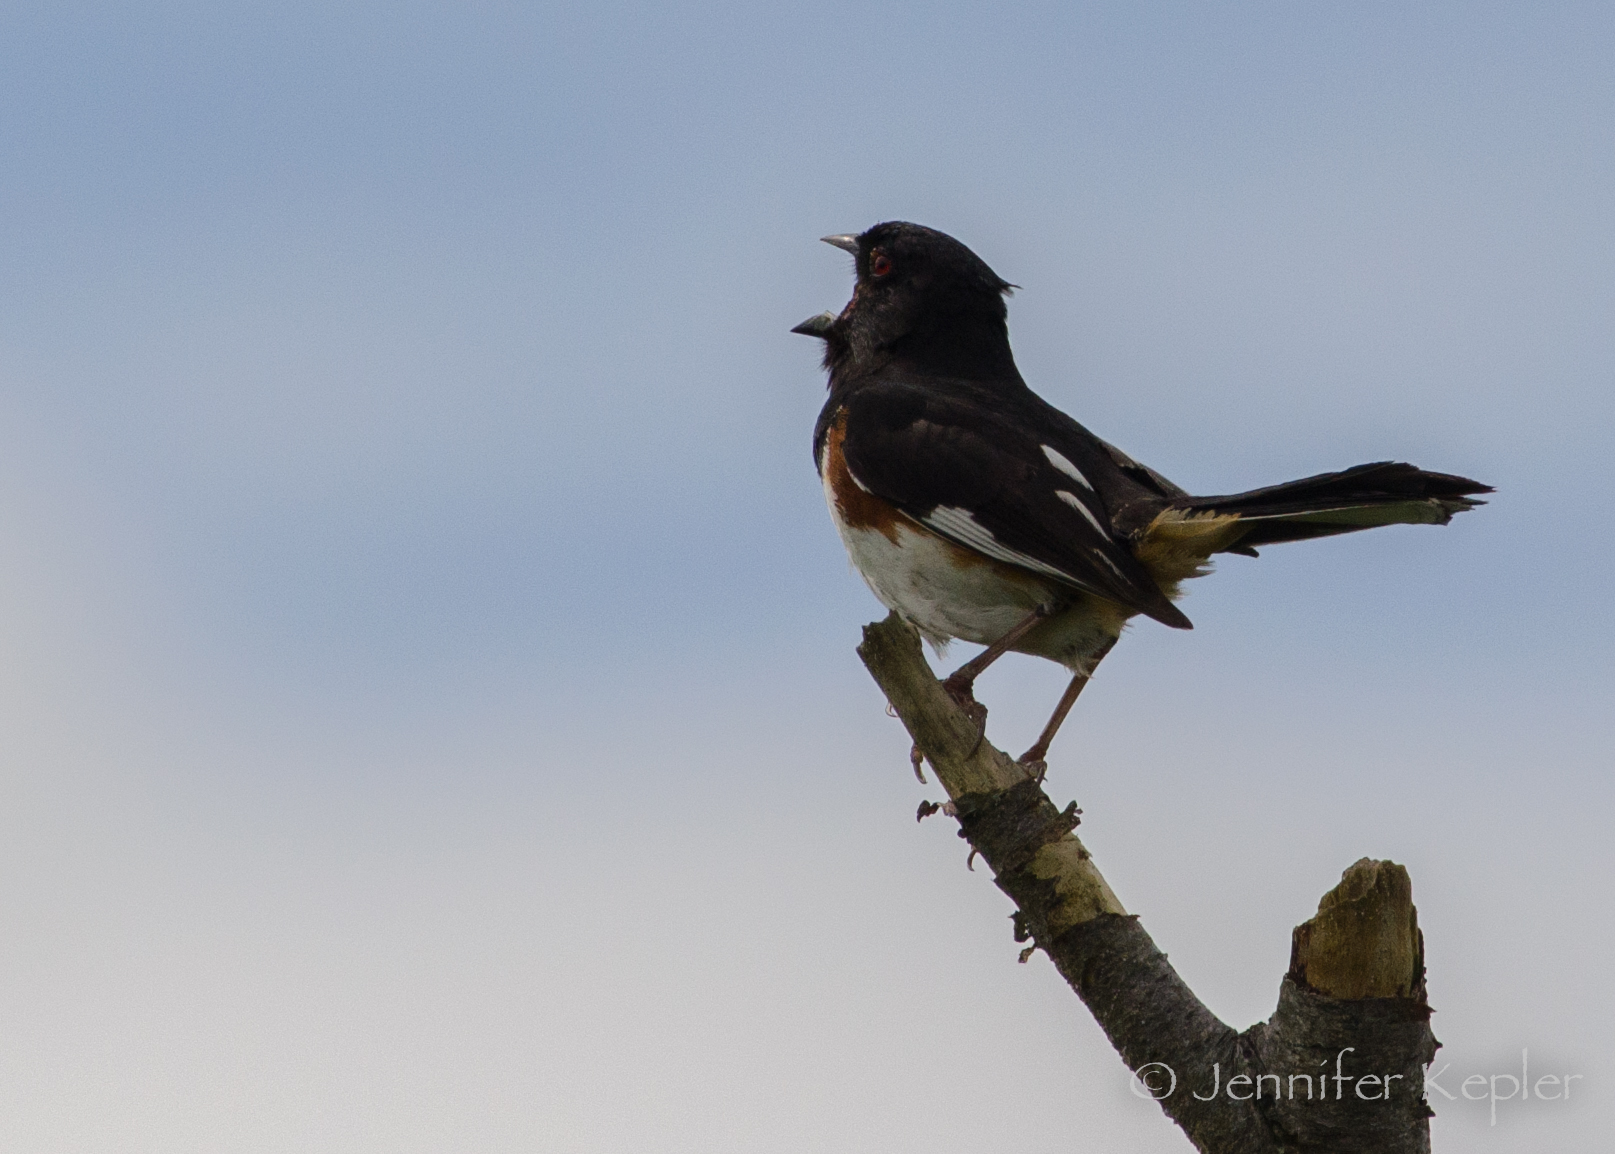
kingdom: Animalia
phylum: Chordata
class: Aves
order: Passeriformes
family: Passerellidae
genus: Pipilo
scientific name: Pipilo erythrophthalmus
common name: Eastern towhee
